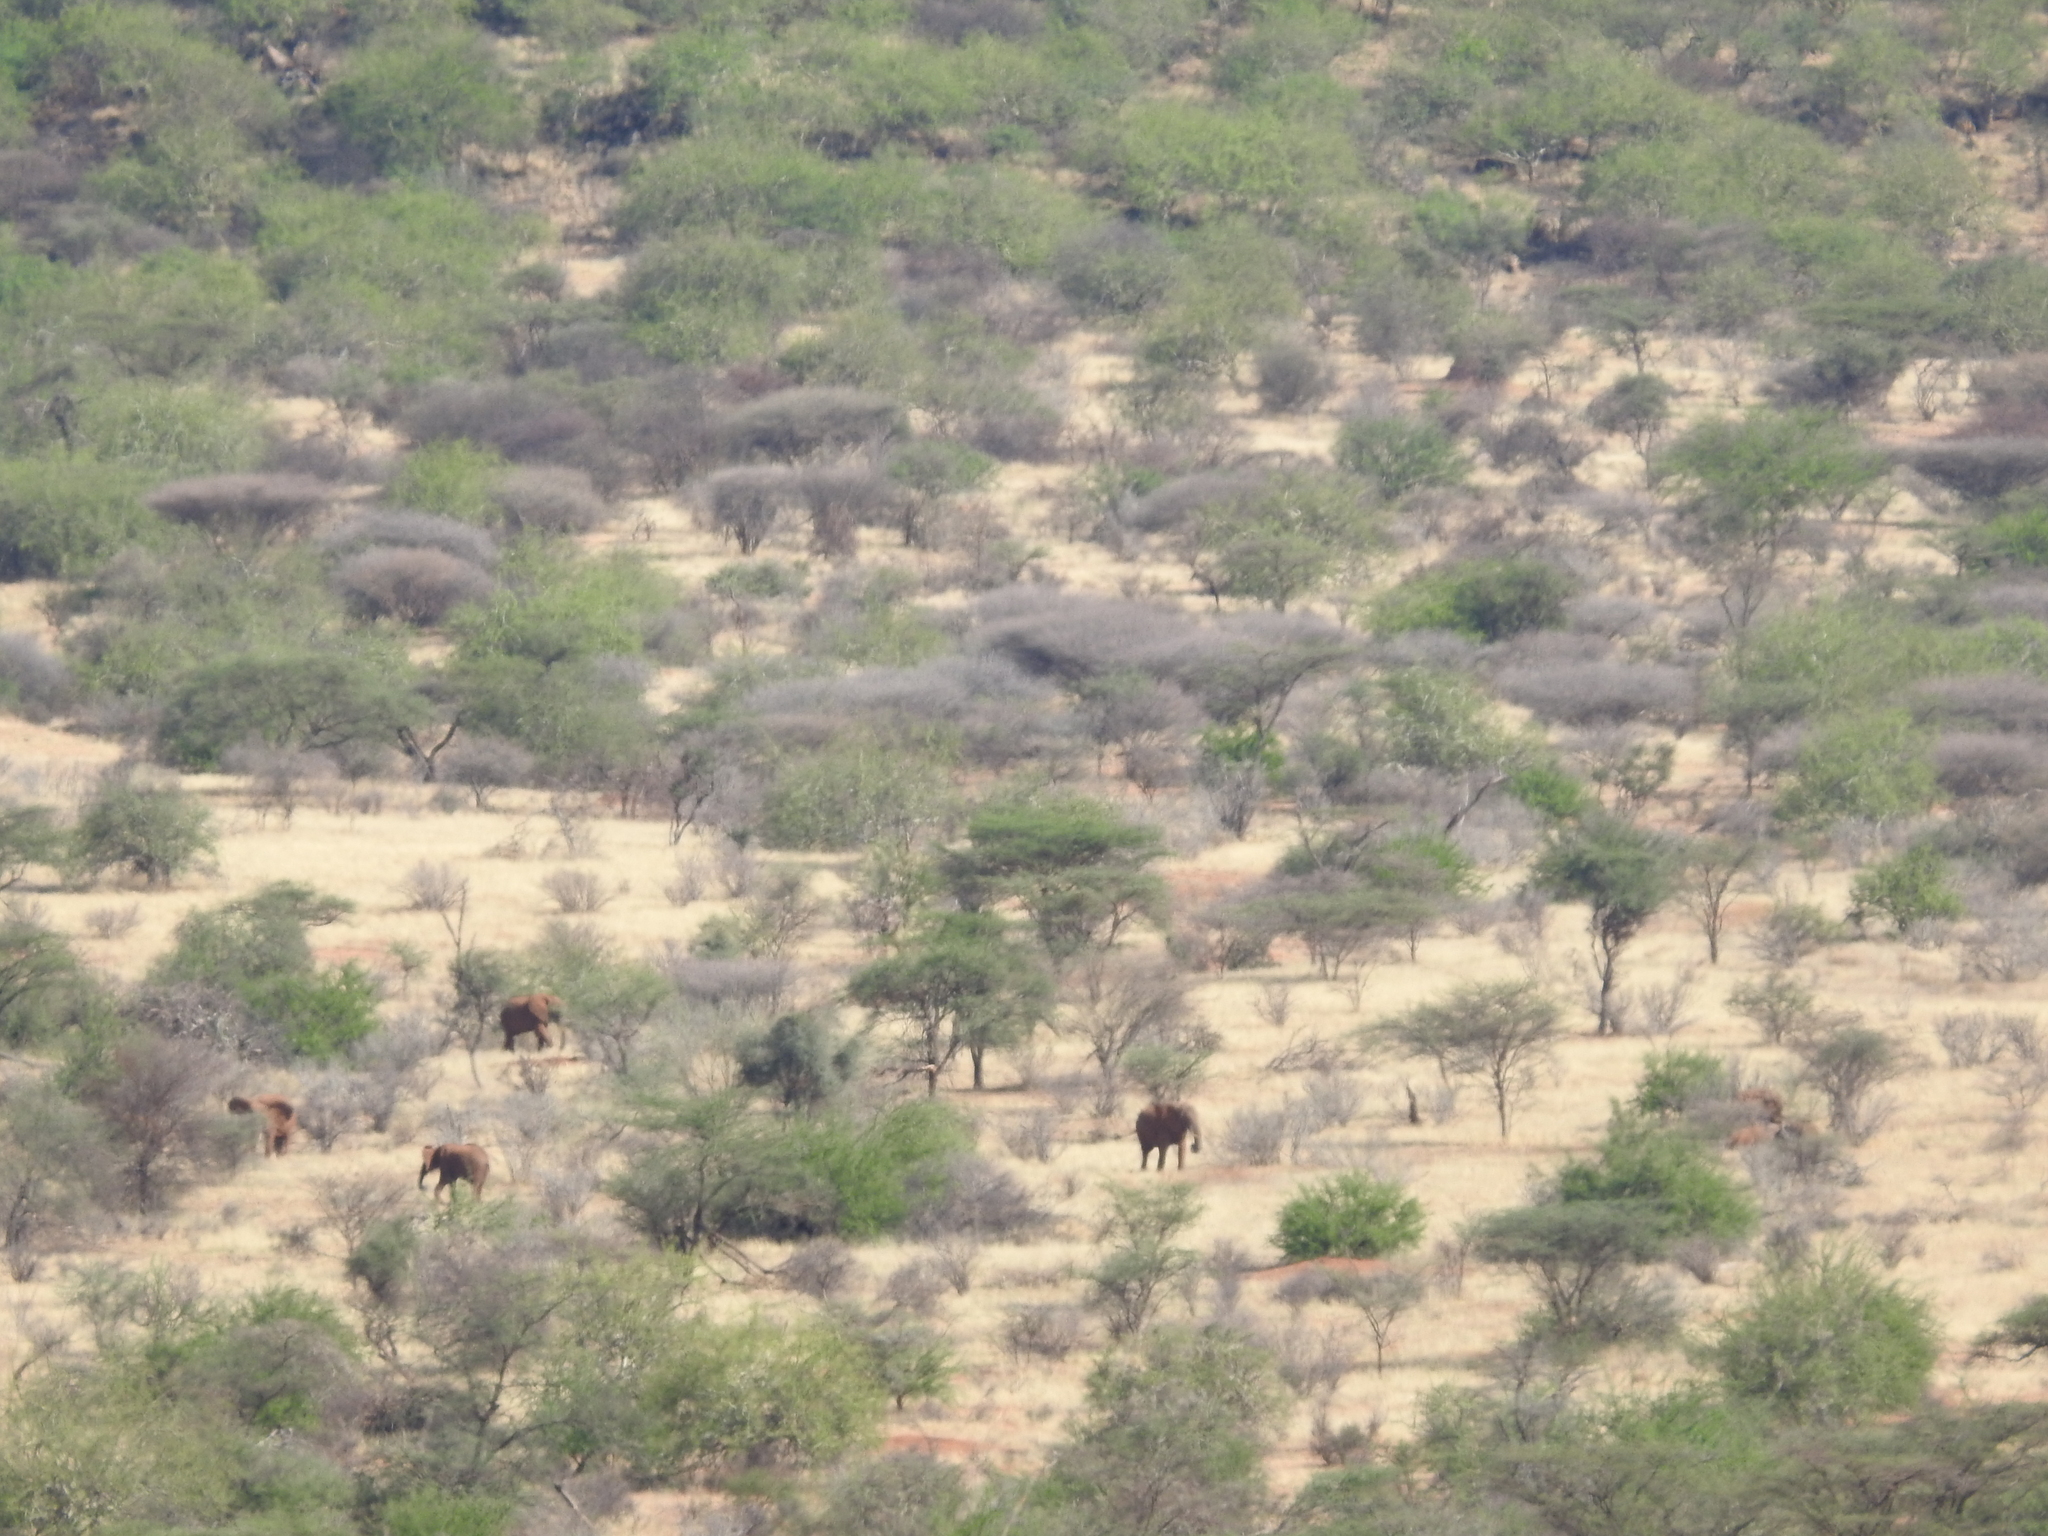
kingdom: Animalia
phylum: Chordata
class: Mammalia
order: Proboscidea
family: Elephantidae
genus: Loxodonta
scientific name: Loxodonta africana
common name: African elephant
